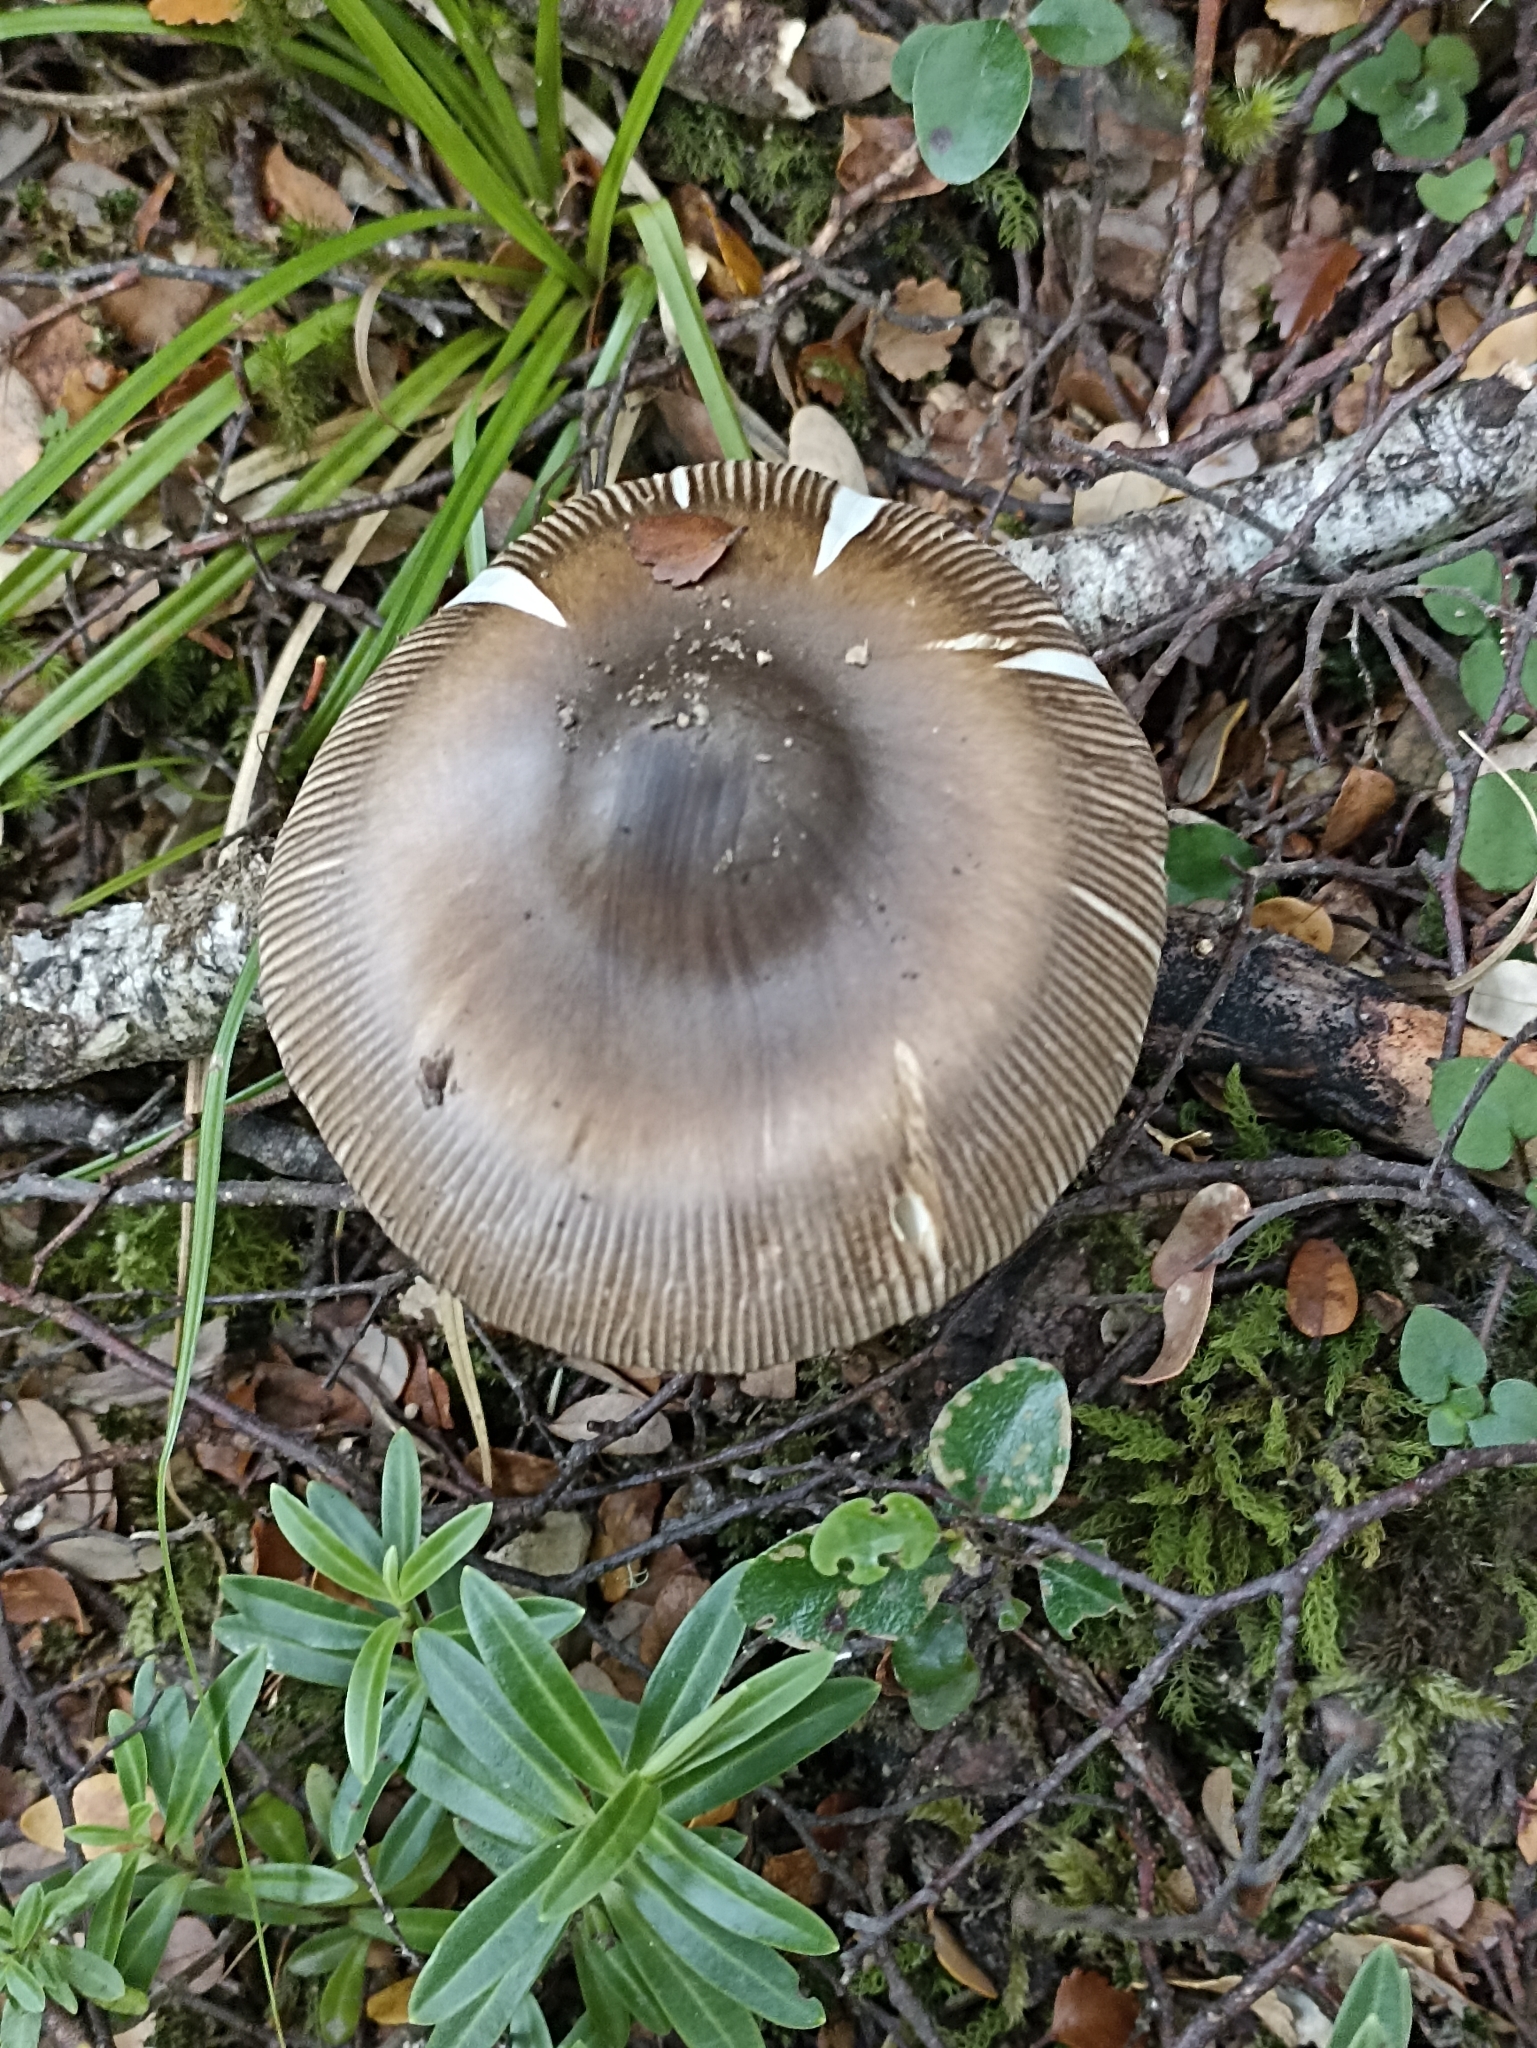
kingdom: Fungi
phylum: Basidiomycota
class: Agaricomycetes
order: Agaricales
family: Amanitaceae
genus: Amanita
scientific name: Amanita pekeoides
